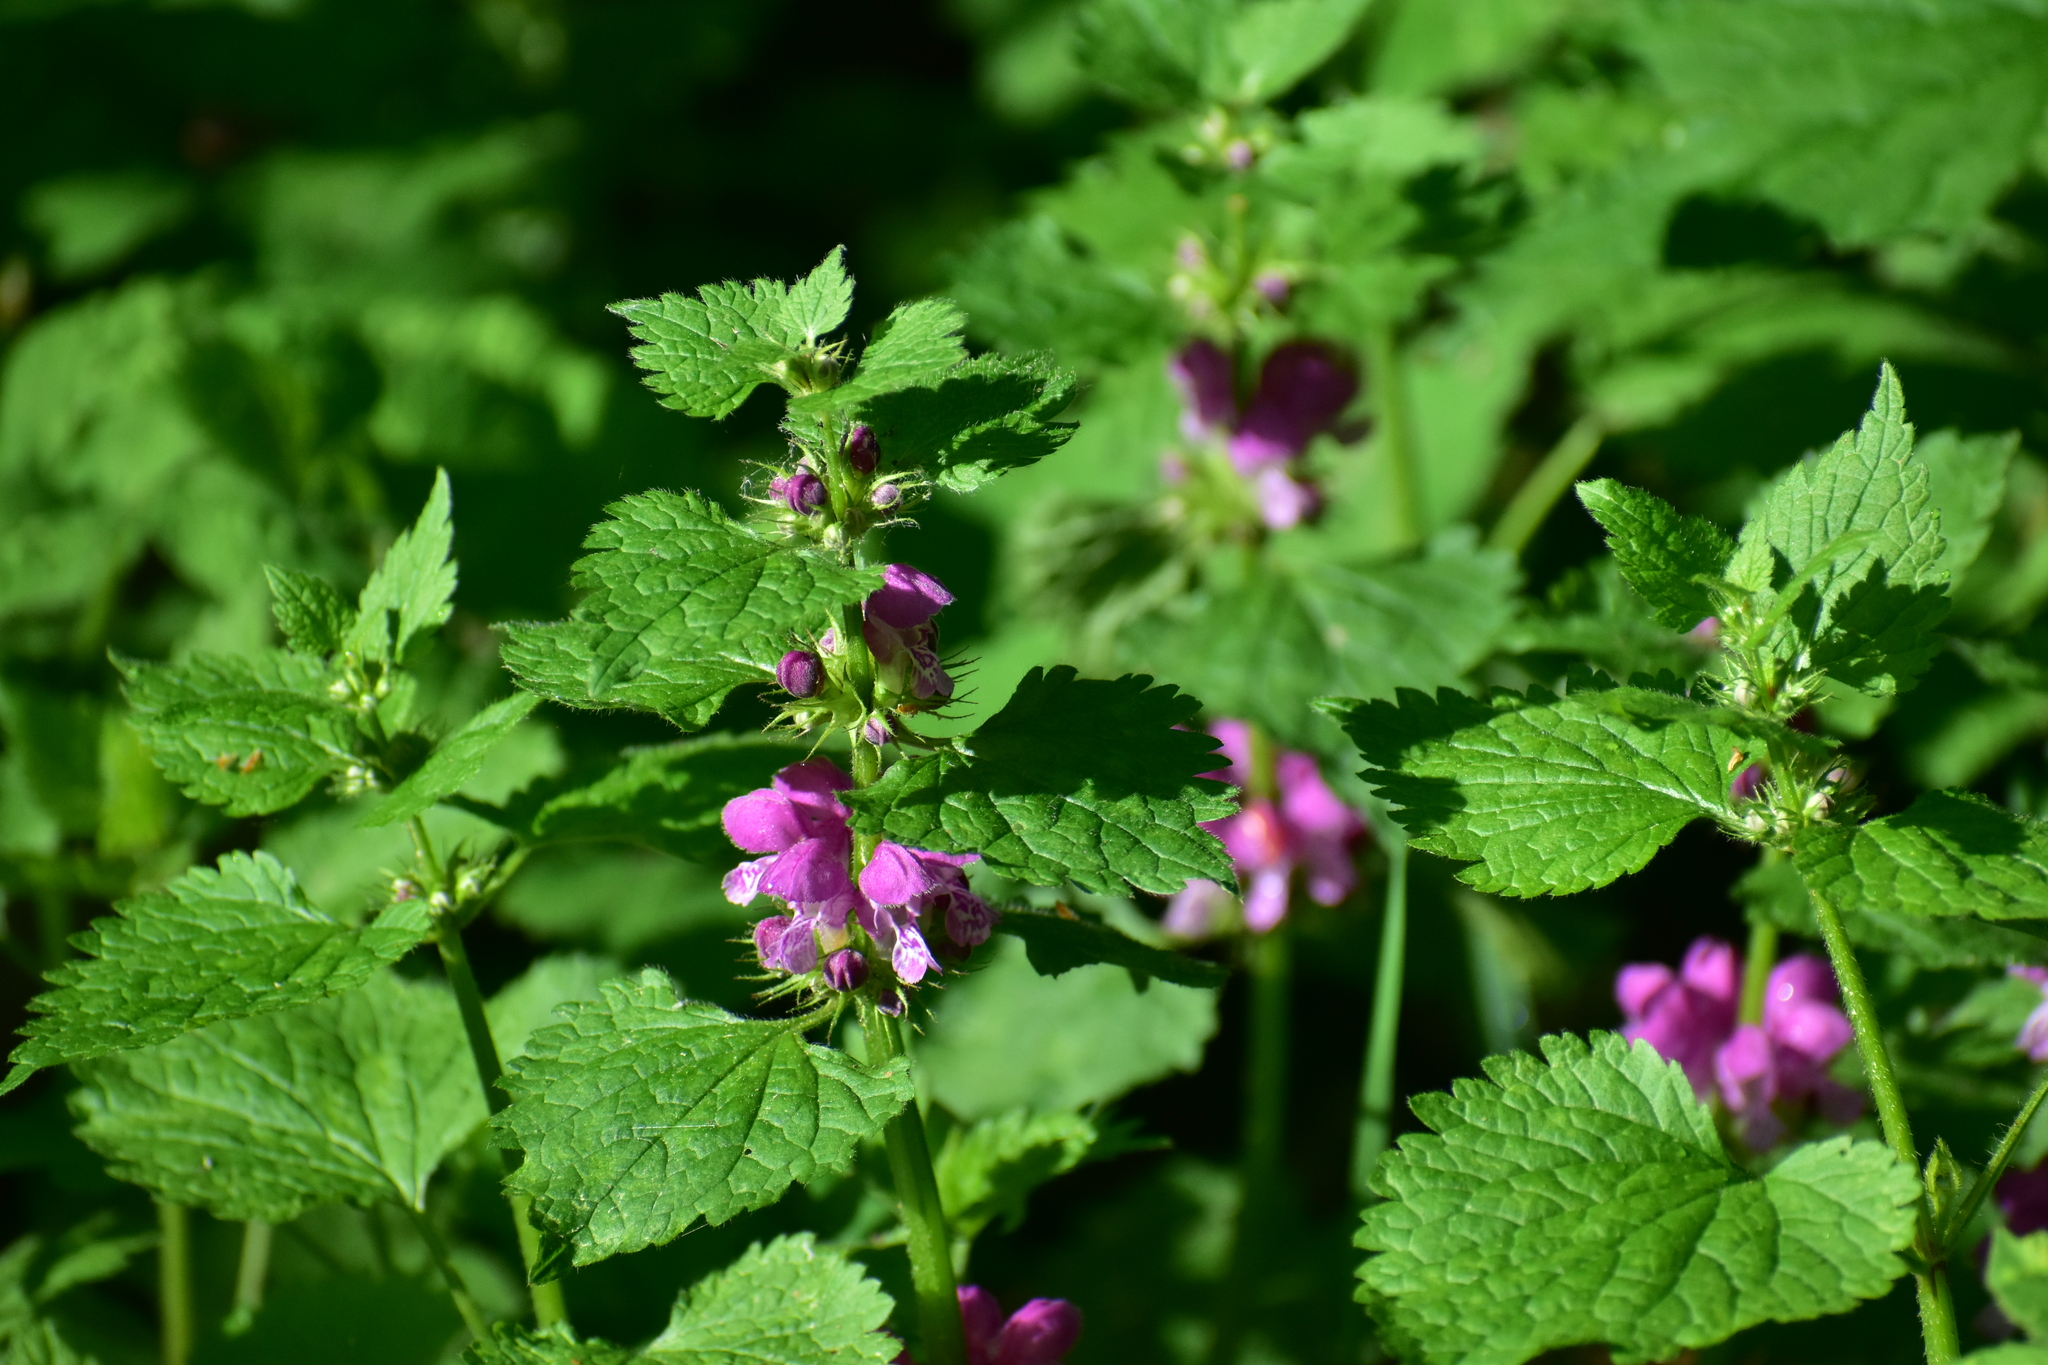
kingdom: Plantae
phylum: Tracheophyta
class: Magnoliopsida
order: Lamiales
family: Lamiaceae
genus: Lamium
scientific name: Lamium maculatum
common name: Spotted dead-nettle
